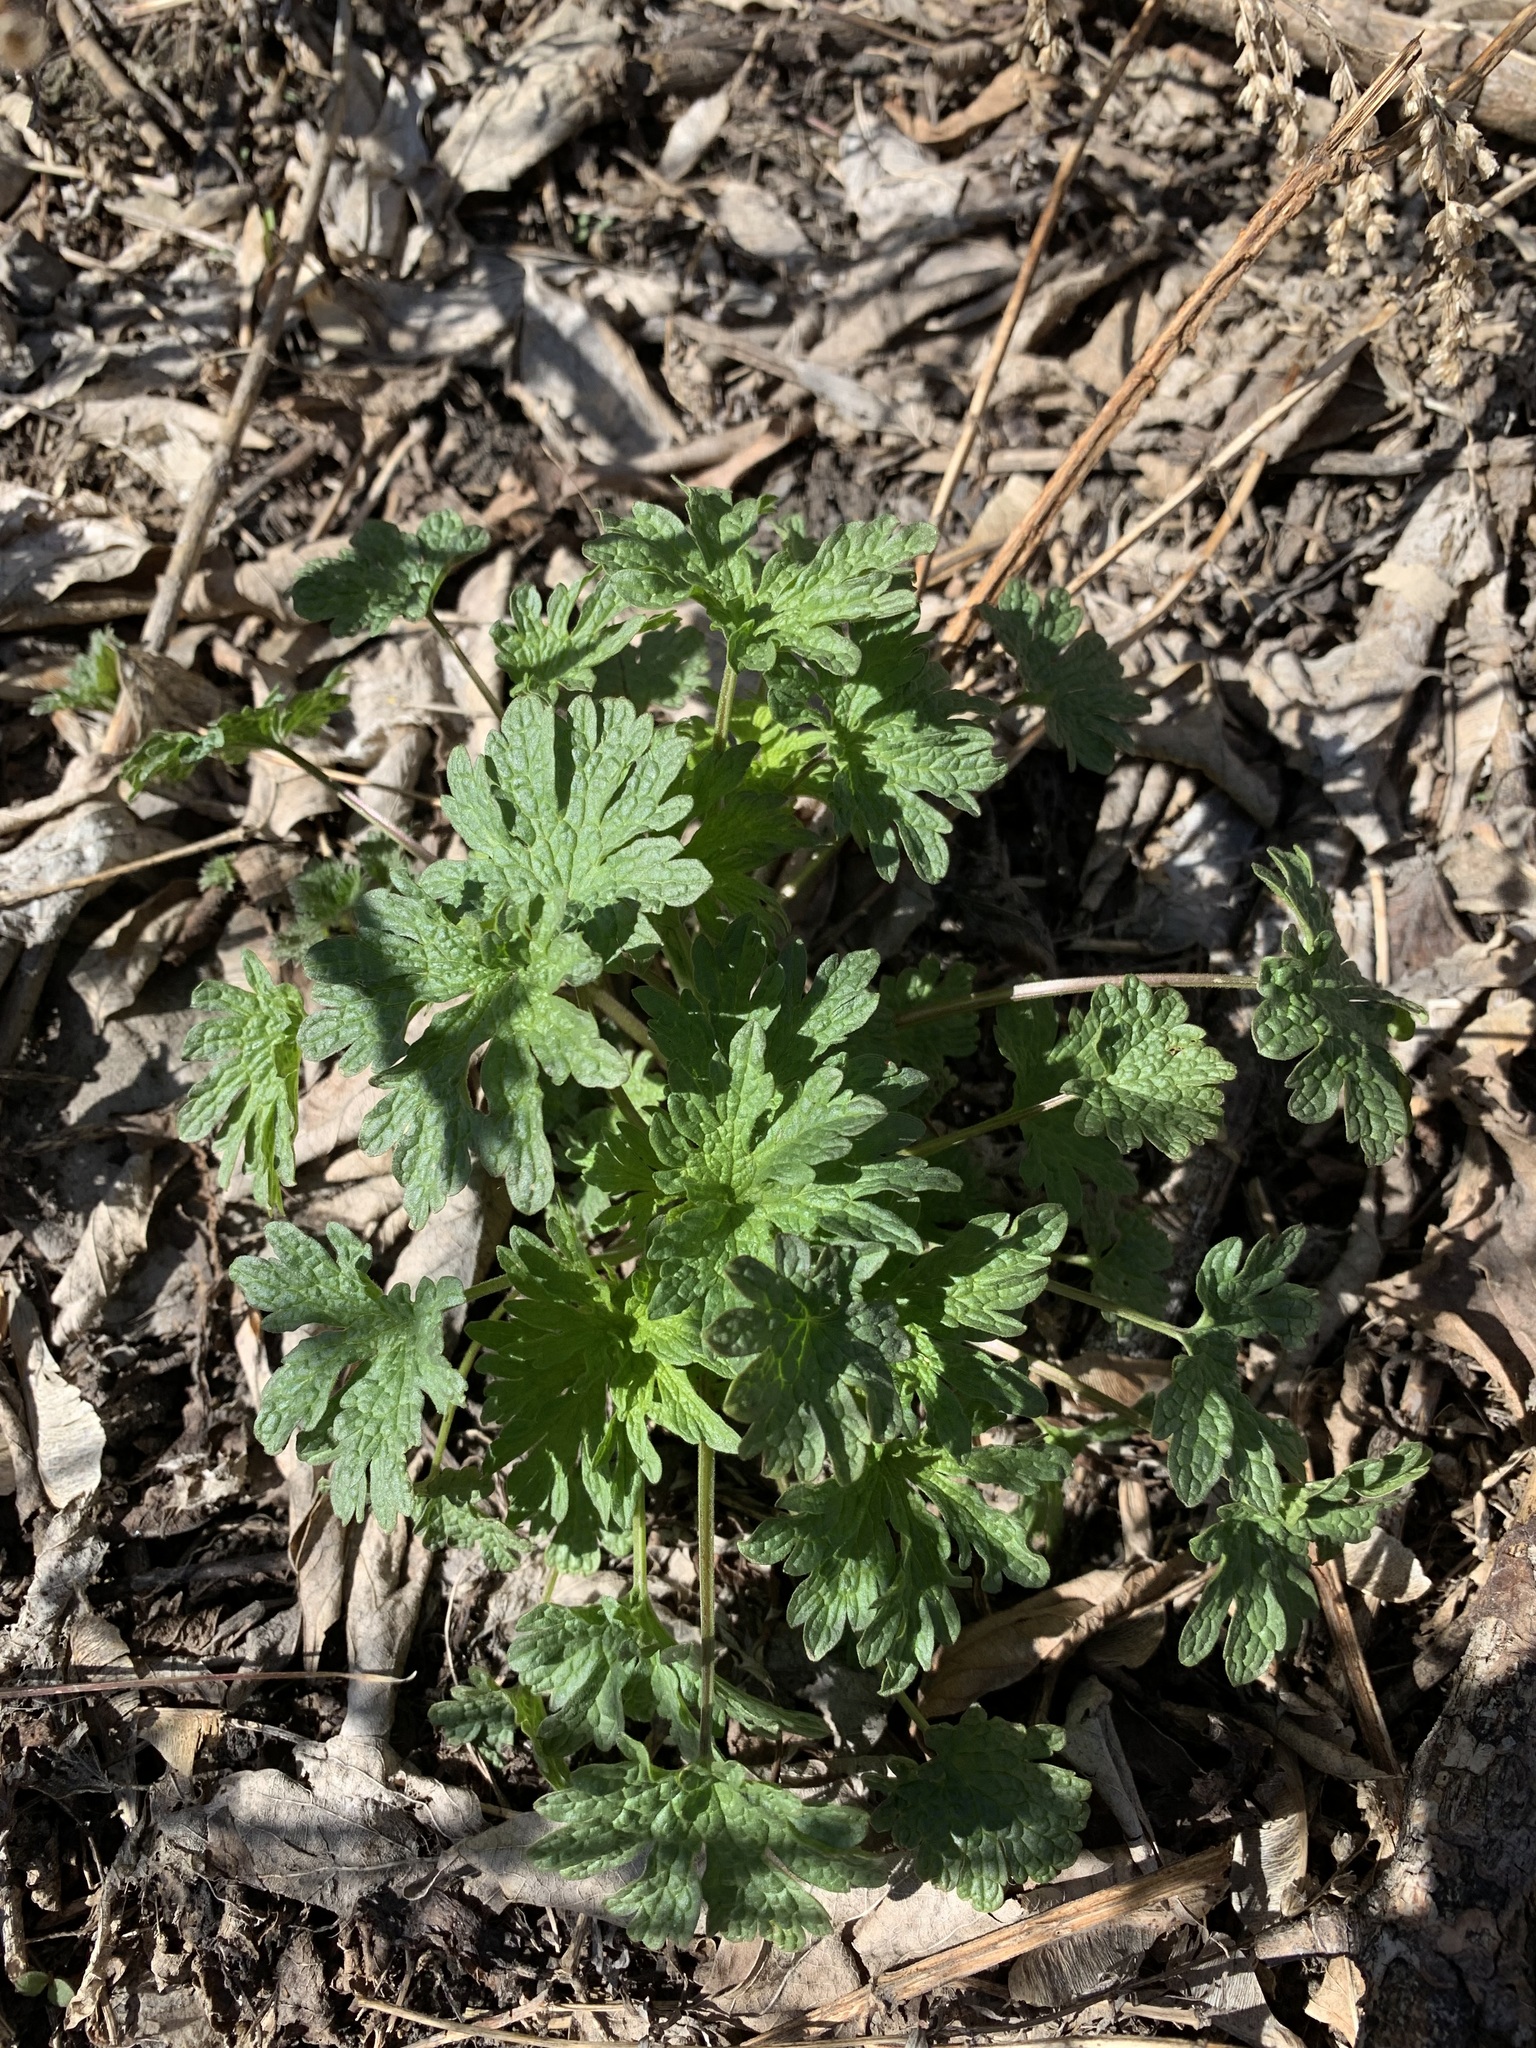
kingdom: Plantae
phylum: Tracheophyta
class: Magnoliopsida
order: Lamiales
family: Lamiaceae
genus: Leonurus
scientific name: Leonurus quinquelobatus
